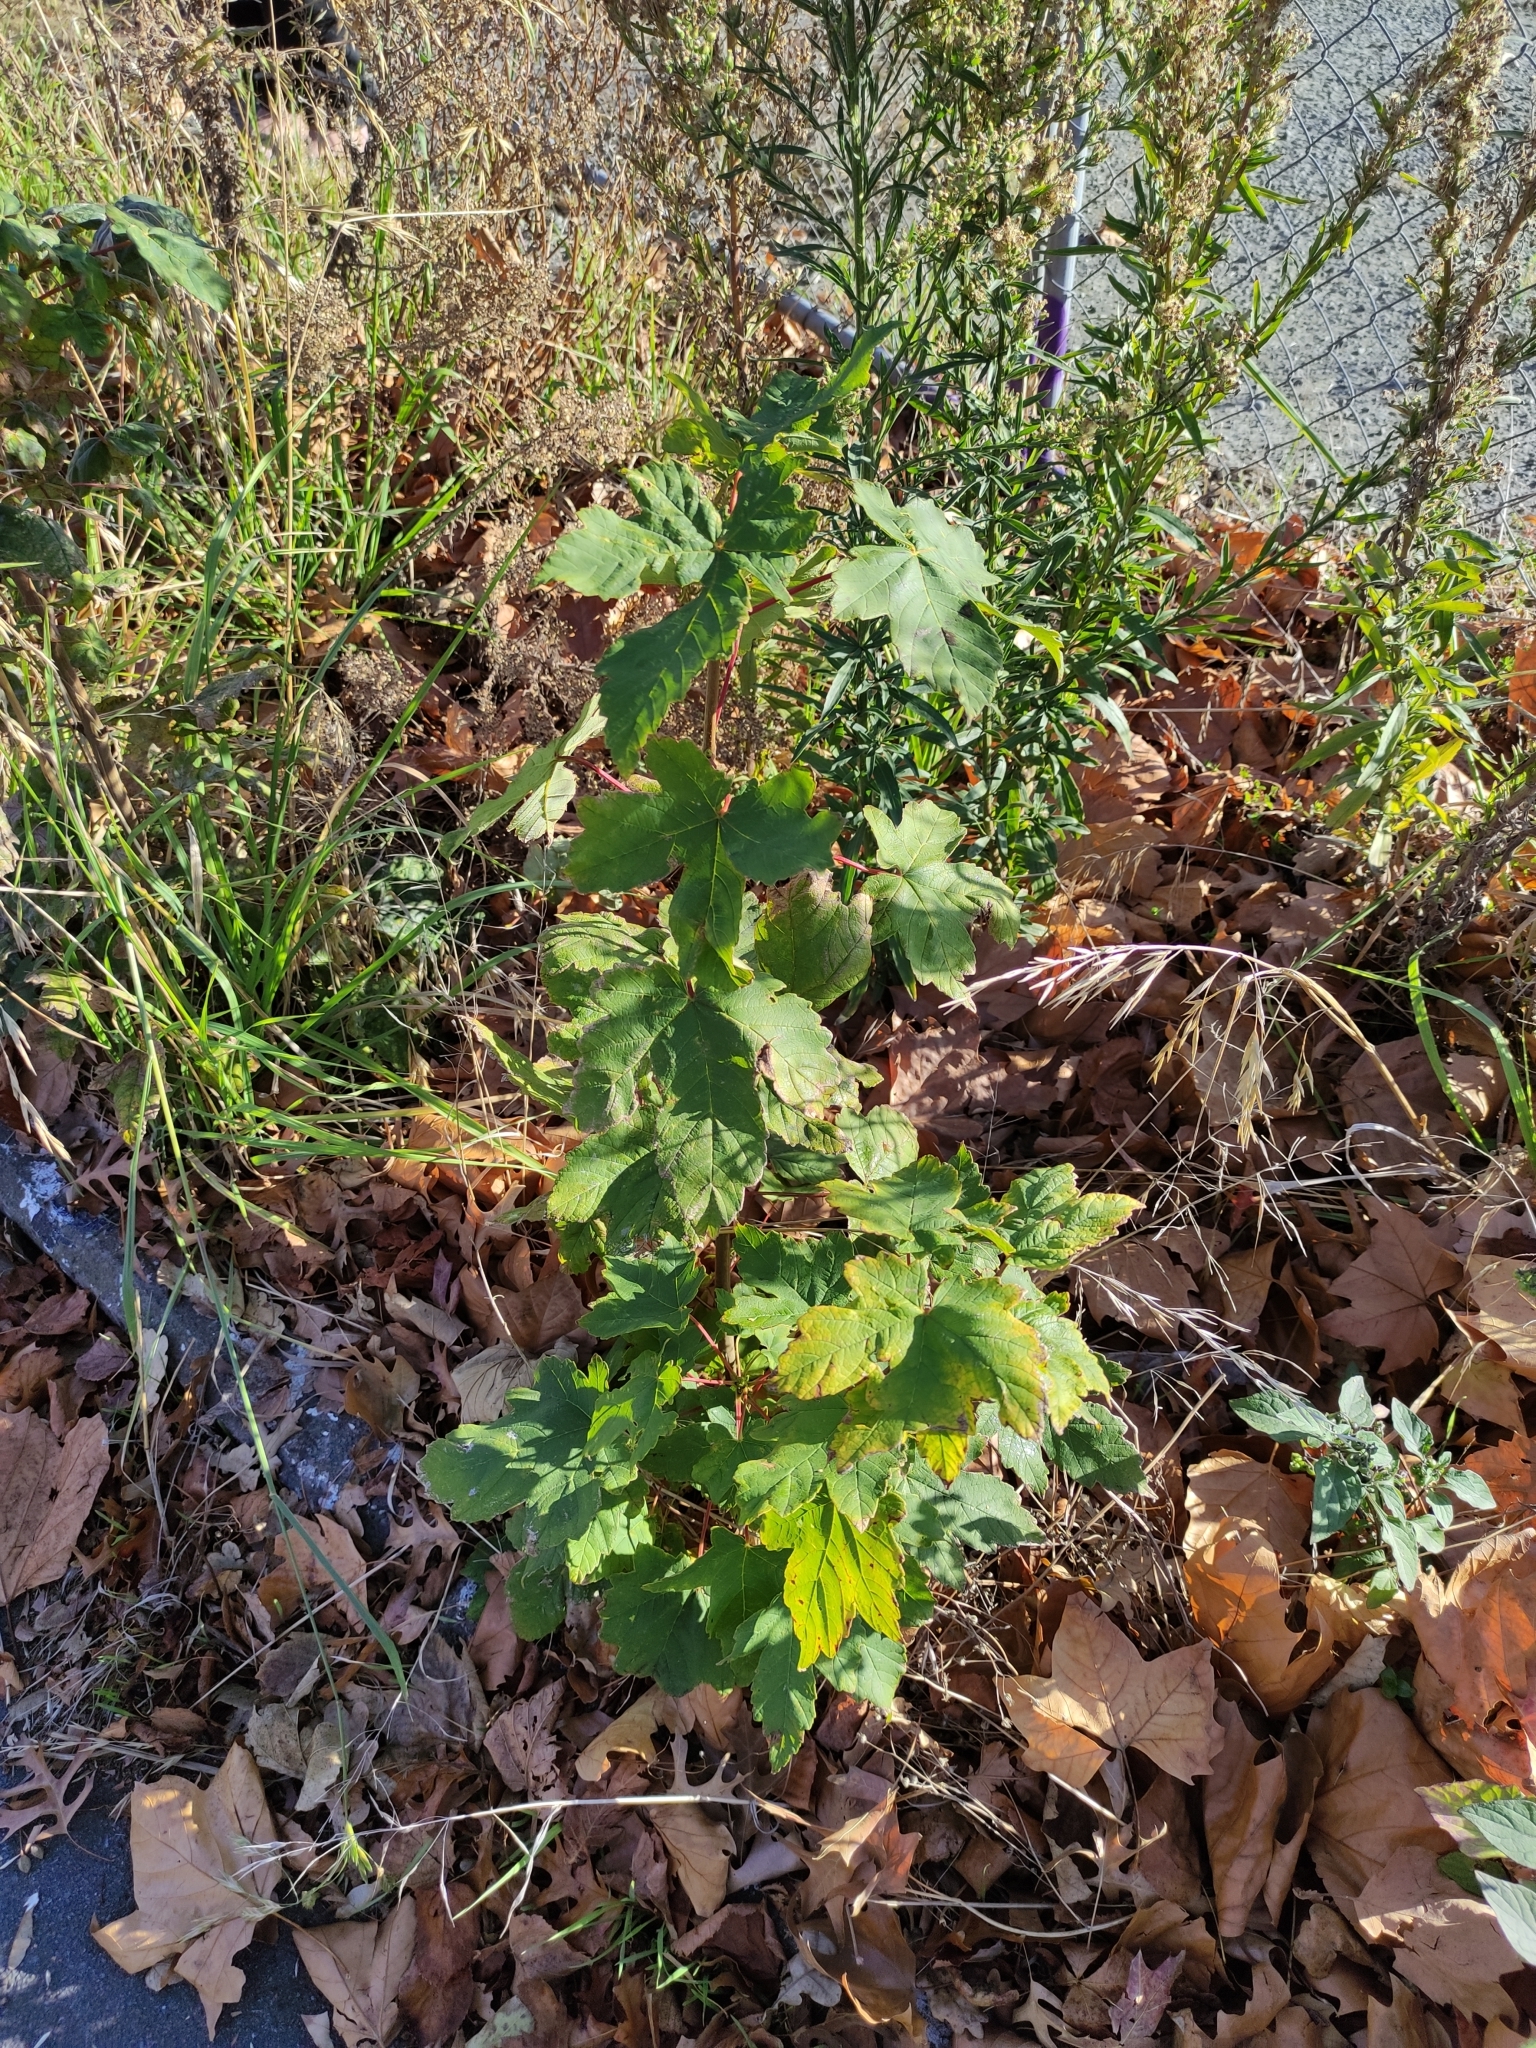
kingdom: Plantae
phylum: Tracheophyta
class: Magnoliopsida
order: Sapindales
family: Sapindaceae
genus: Acer
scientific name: Acer pseudoplatanus
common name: Sycamore
